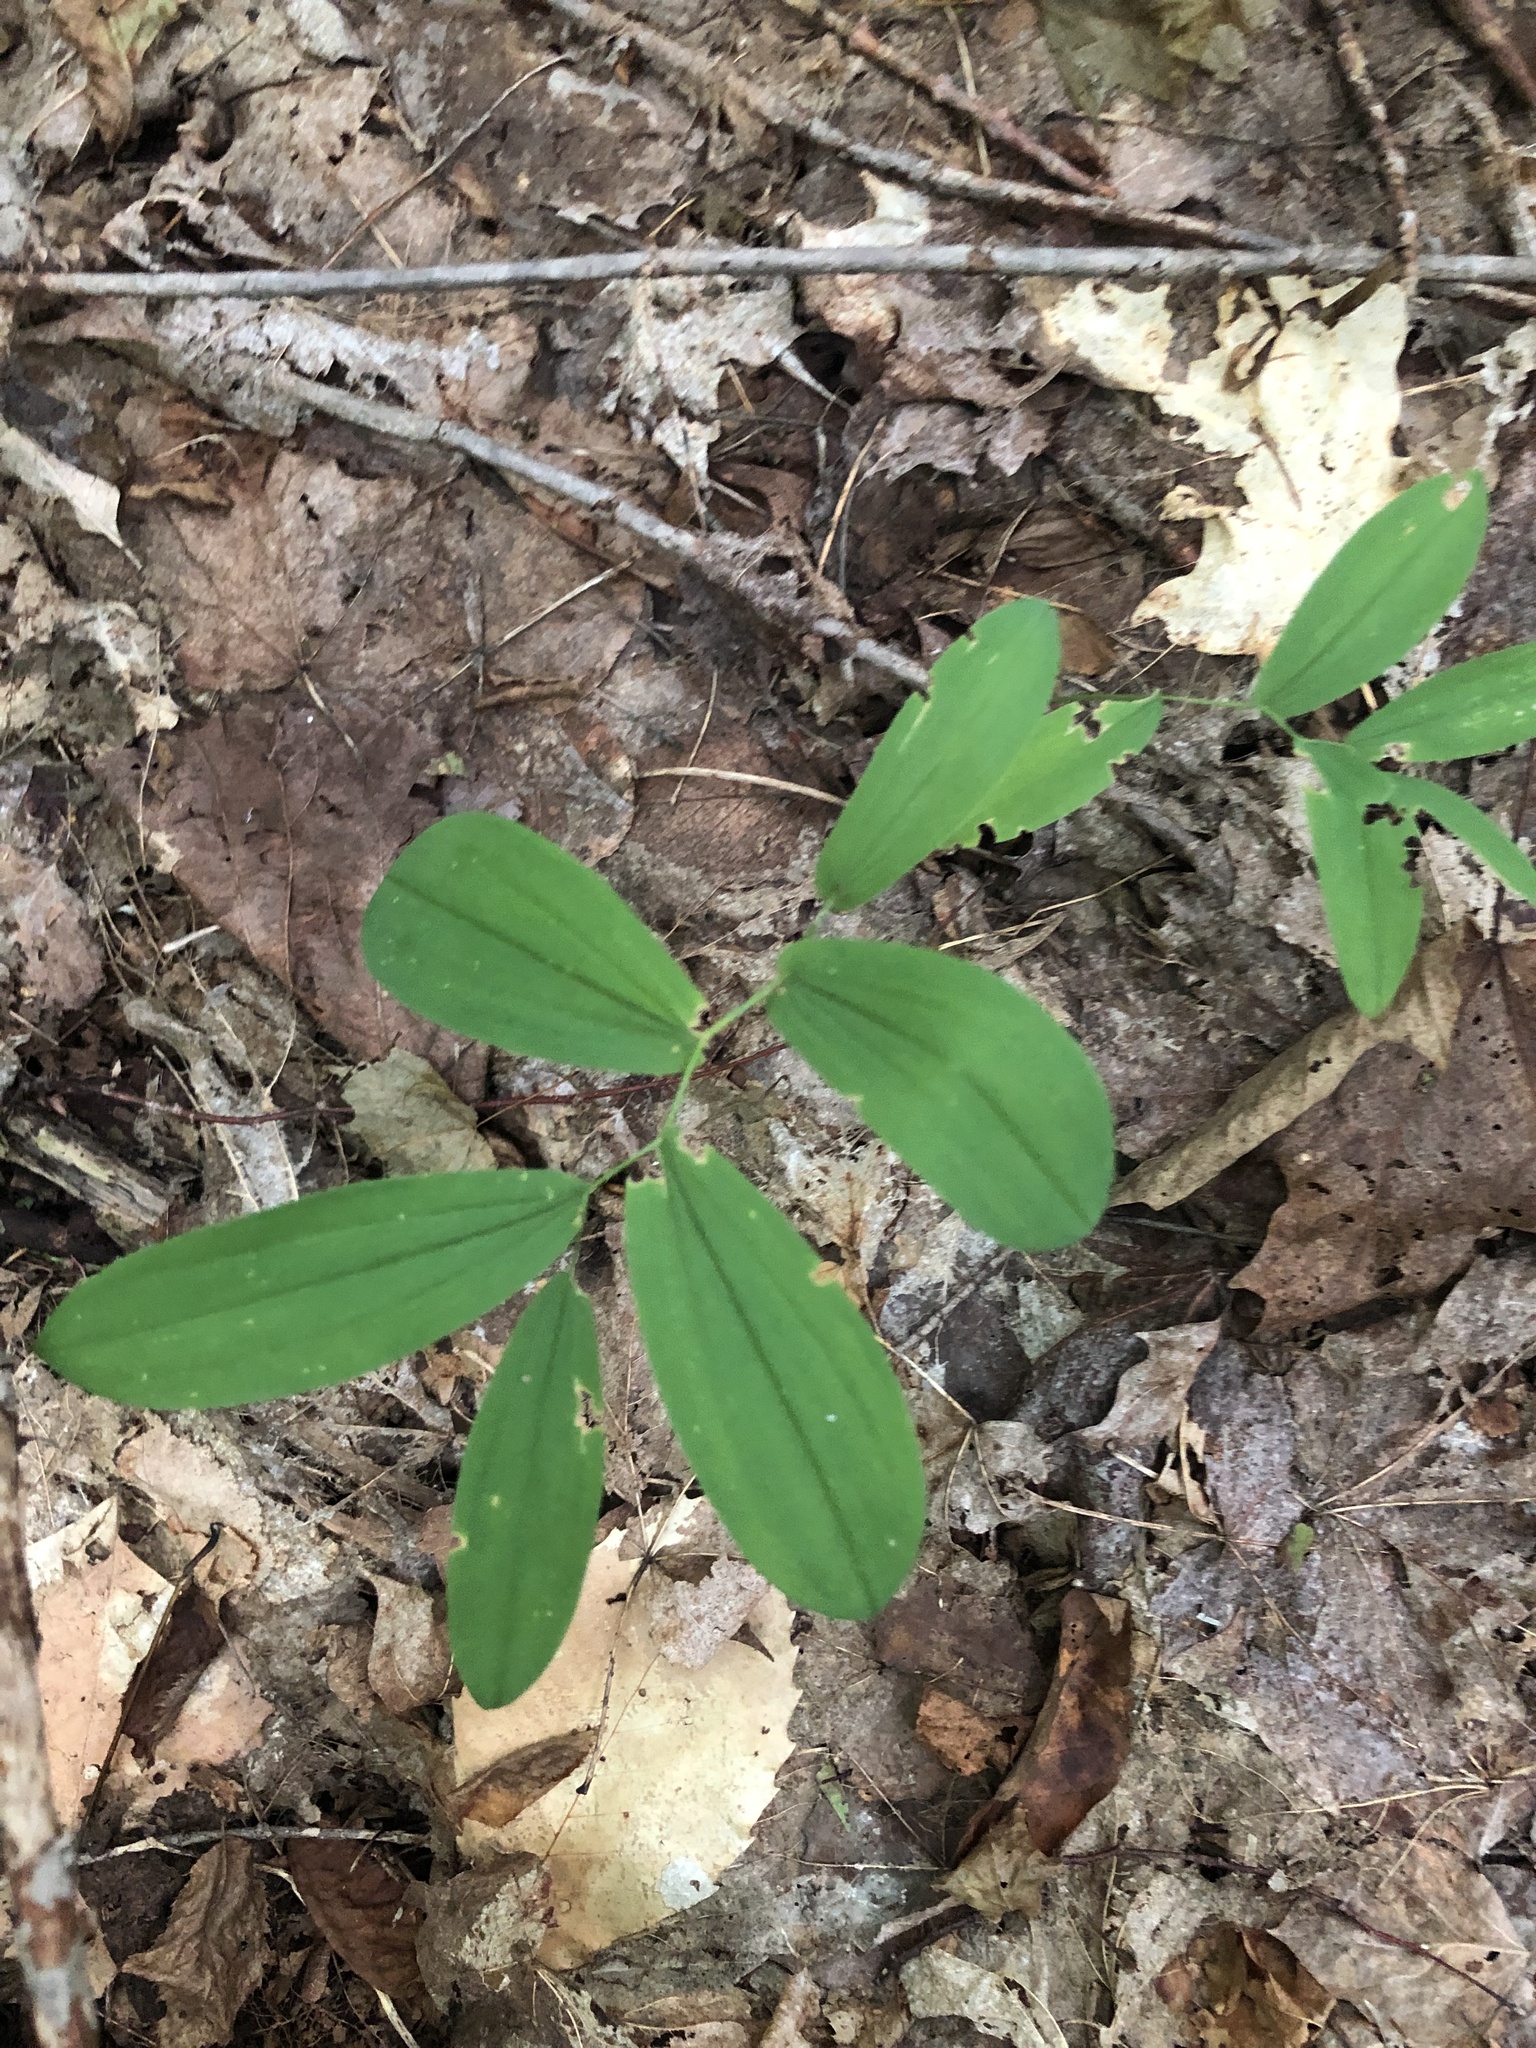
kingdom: Plantae
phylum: Tracheophyta
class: Liliopsida
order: Liliales
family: Colchicaceae
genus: Uvularia
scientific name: Uvularia grandiflora
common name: Bellwort
